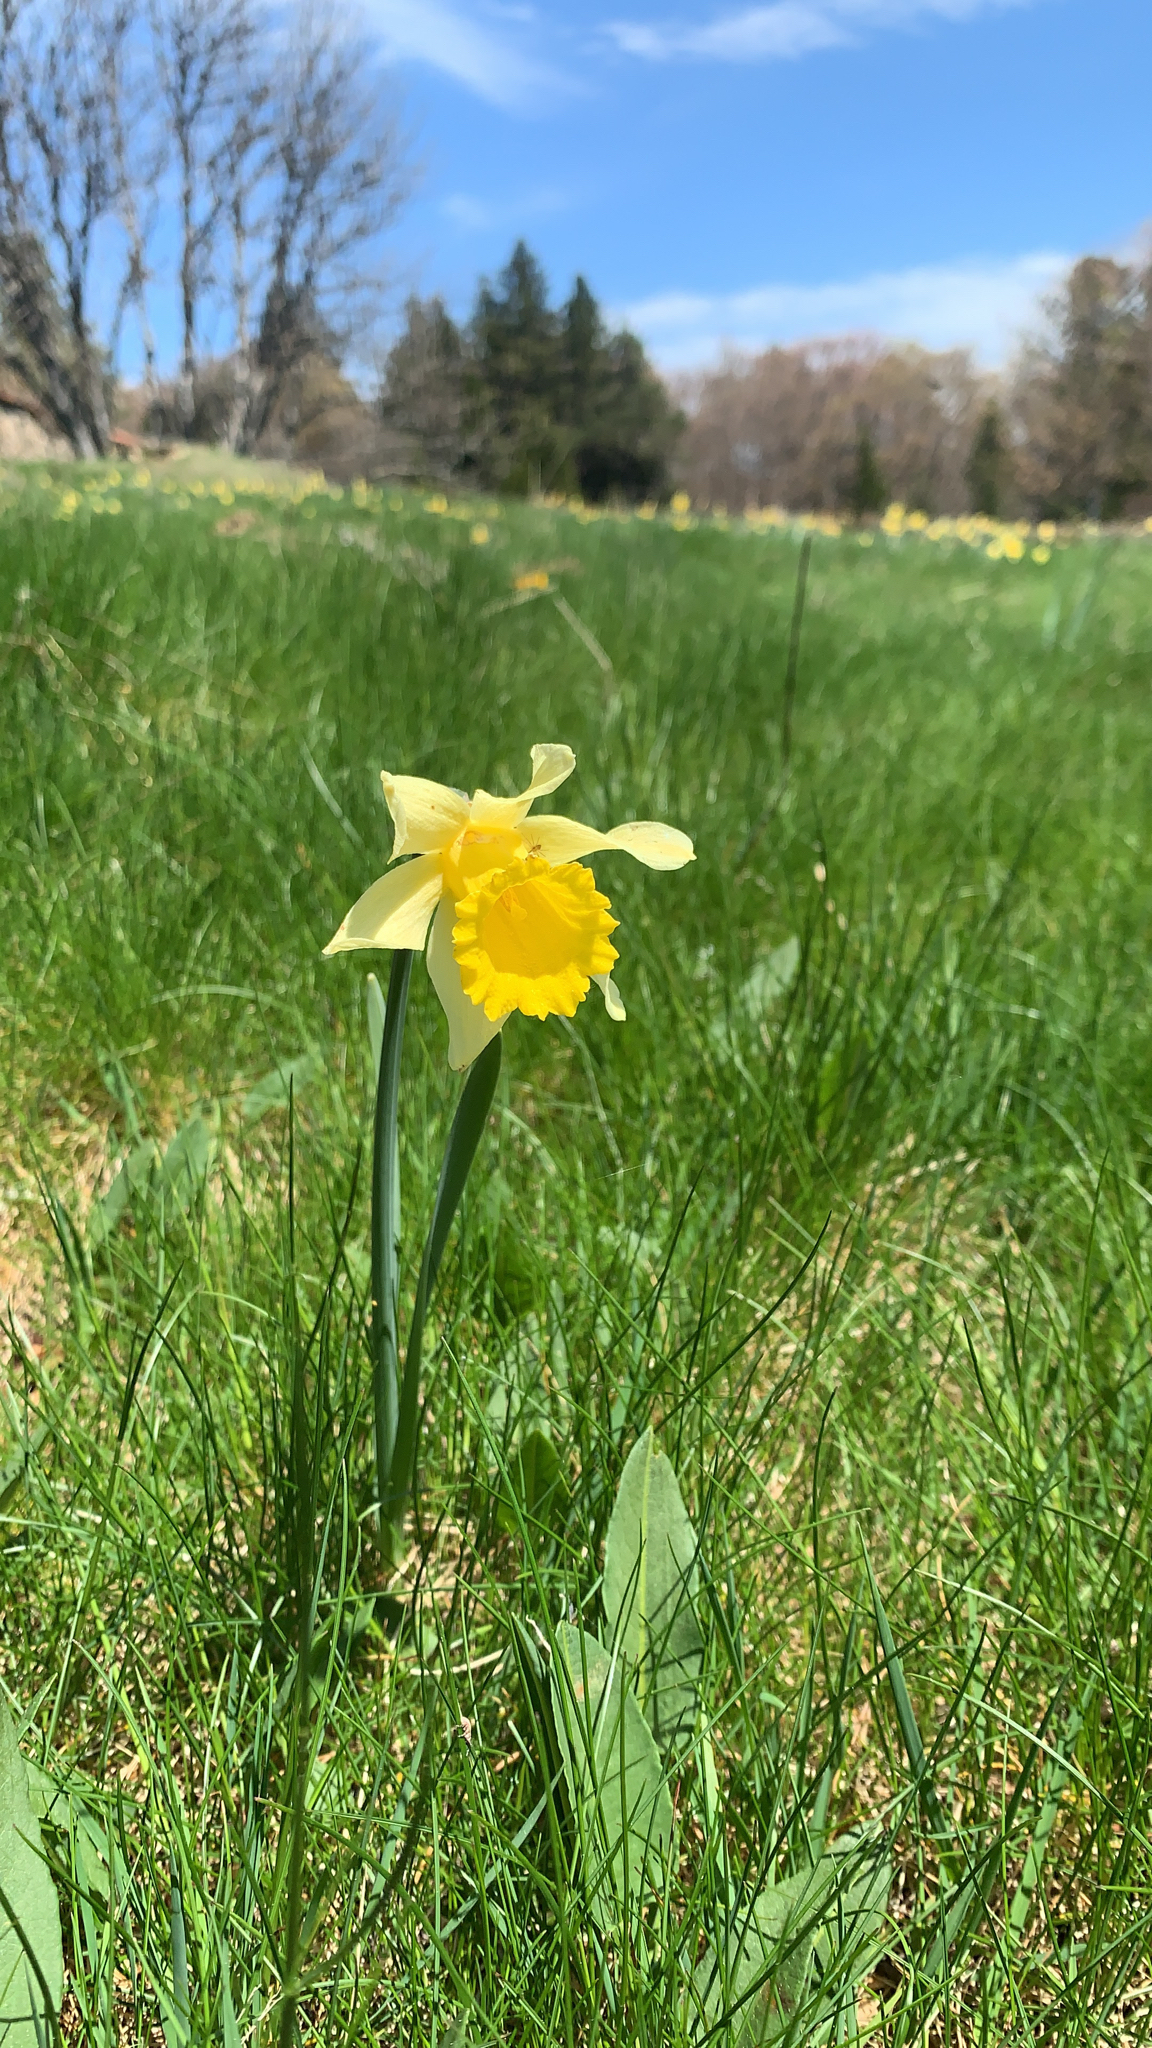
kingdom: Plantae
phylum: Tracheophyta
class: Liliopsida
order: Asparagales
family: Amaryllidaceae
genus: Narcissus
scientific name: Narcissus pseudonarcissus
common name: Daffodil
